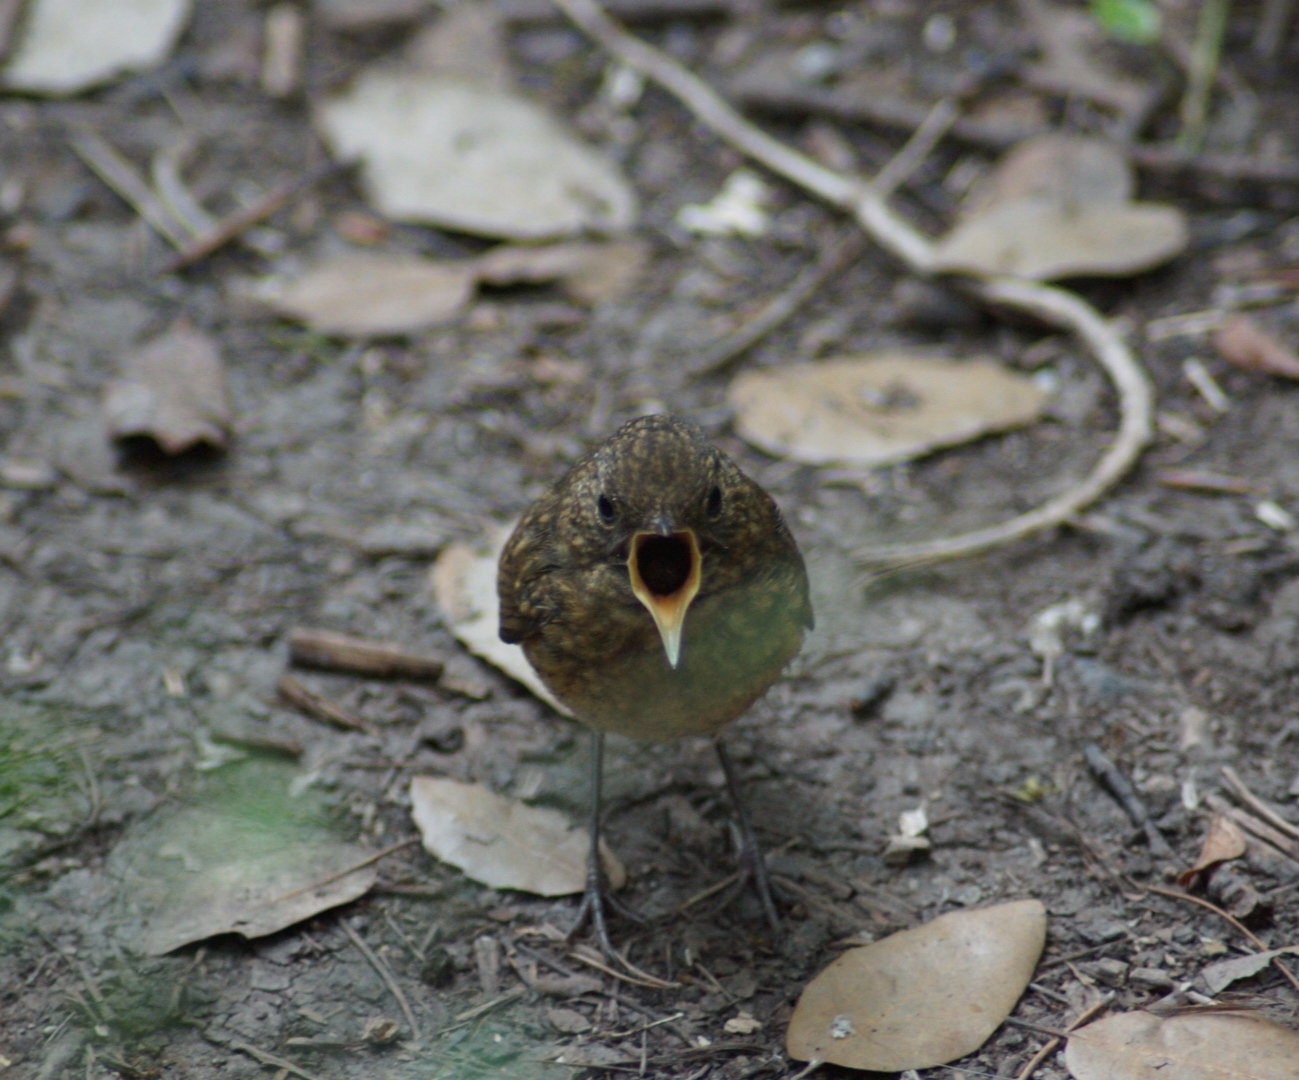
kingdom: Animalia
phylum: Chordata
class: Aves
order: Passeriformes
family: Muscicapidae
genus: Erithacus
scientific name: Erithacus rubecula
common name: European robin
